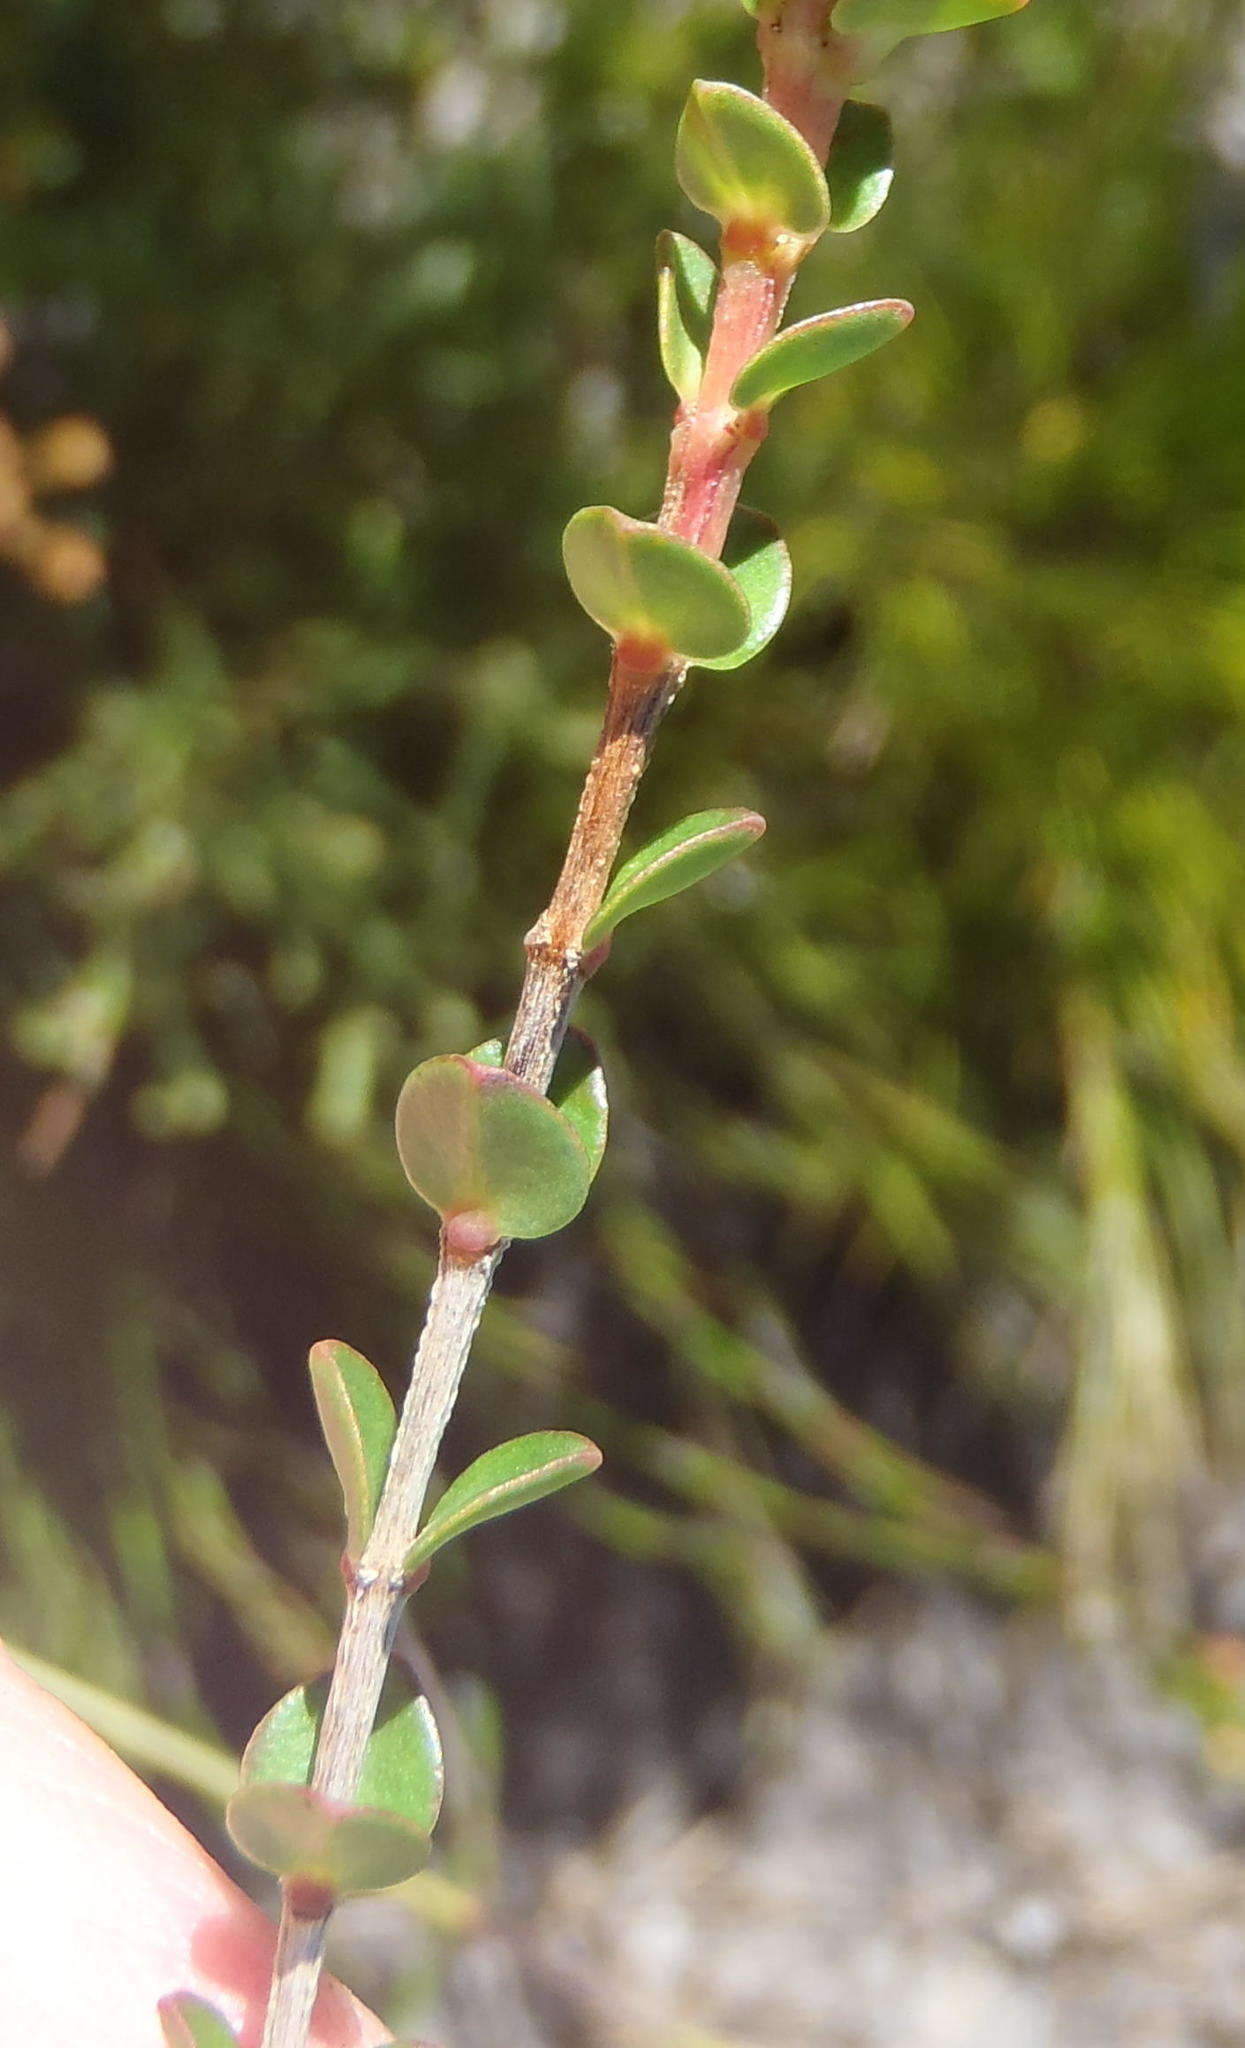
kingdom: Plantae
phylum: Tracheophyta
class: Magnoliopsida
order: Myrtales
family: Penaeaceae
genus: Penaea
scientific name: Penaea cneorum
